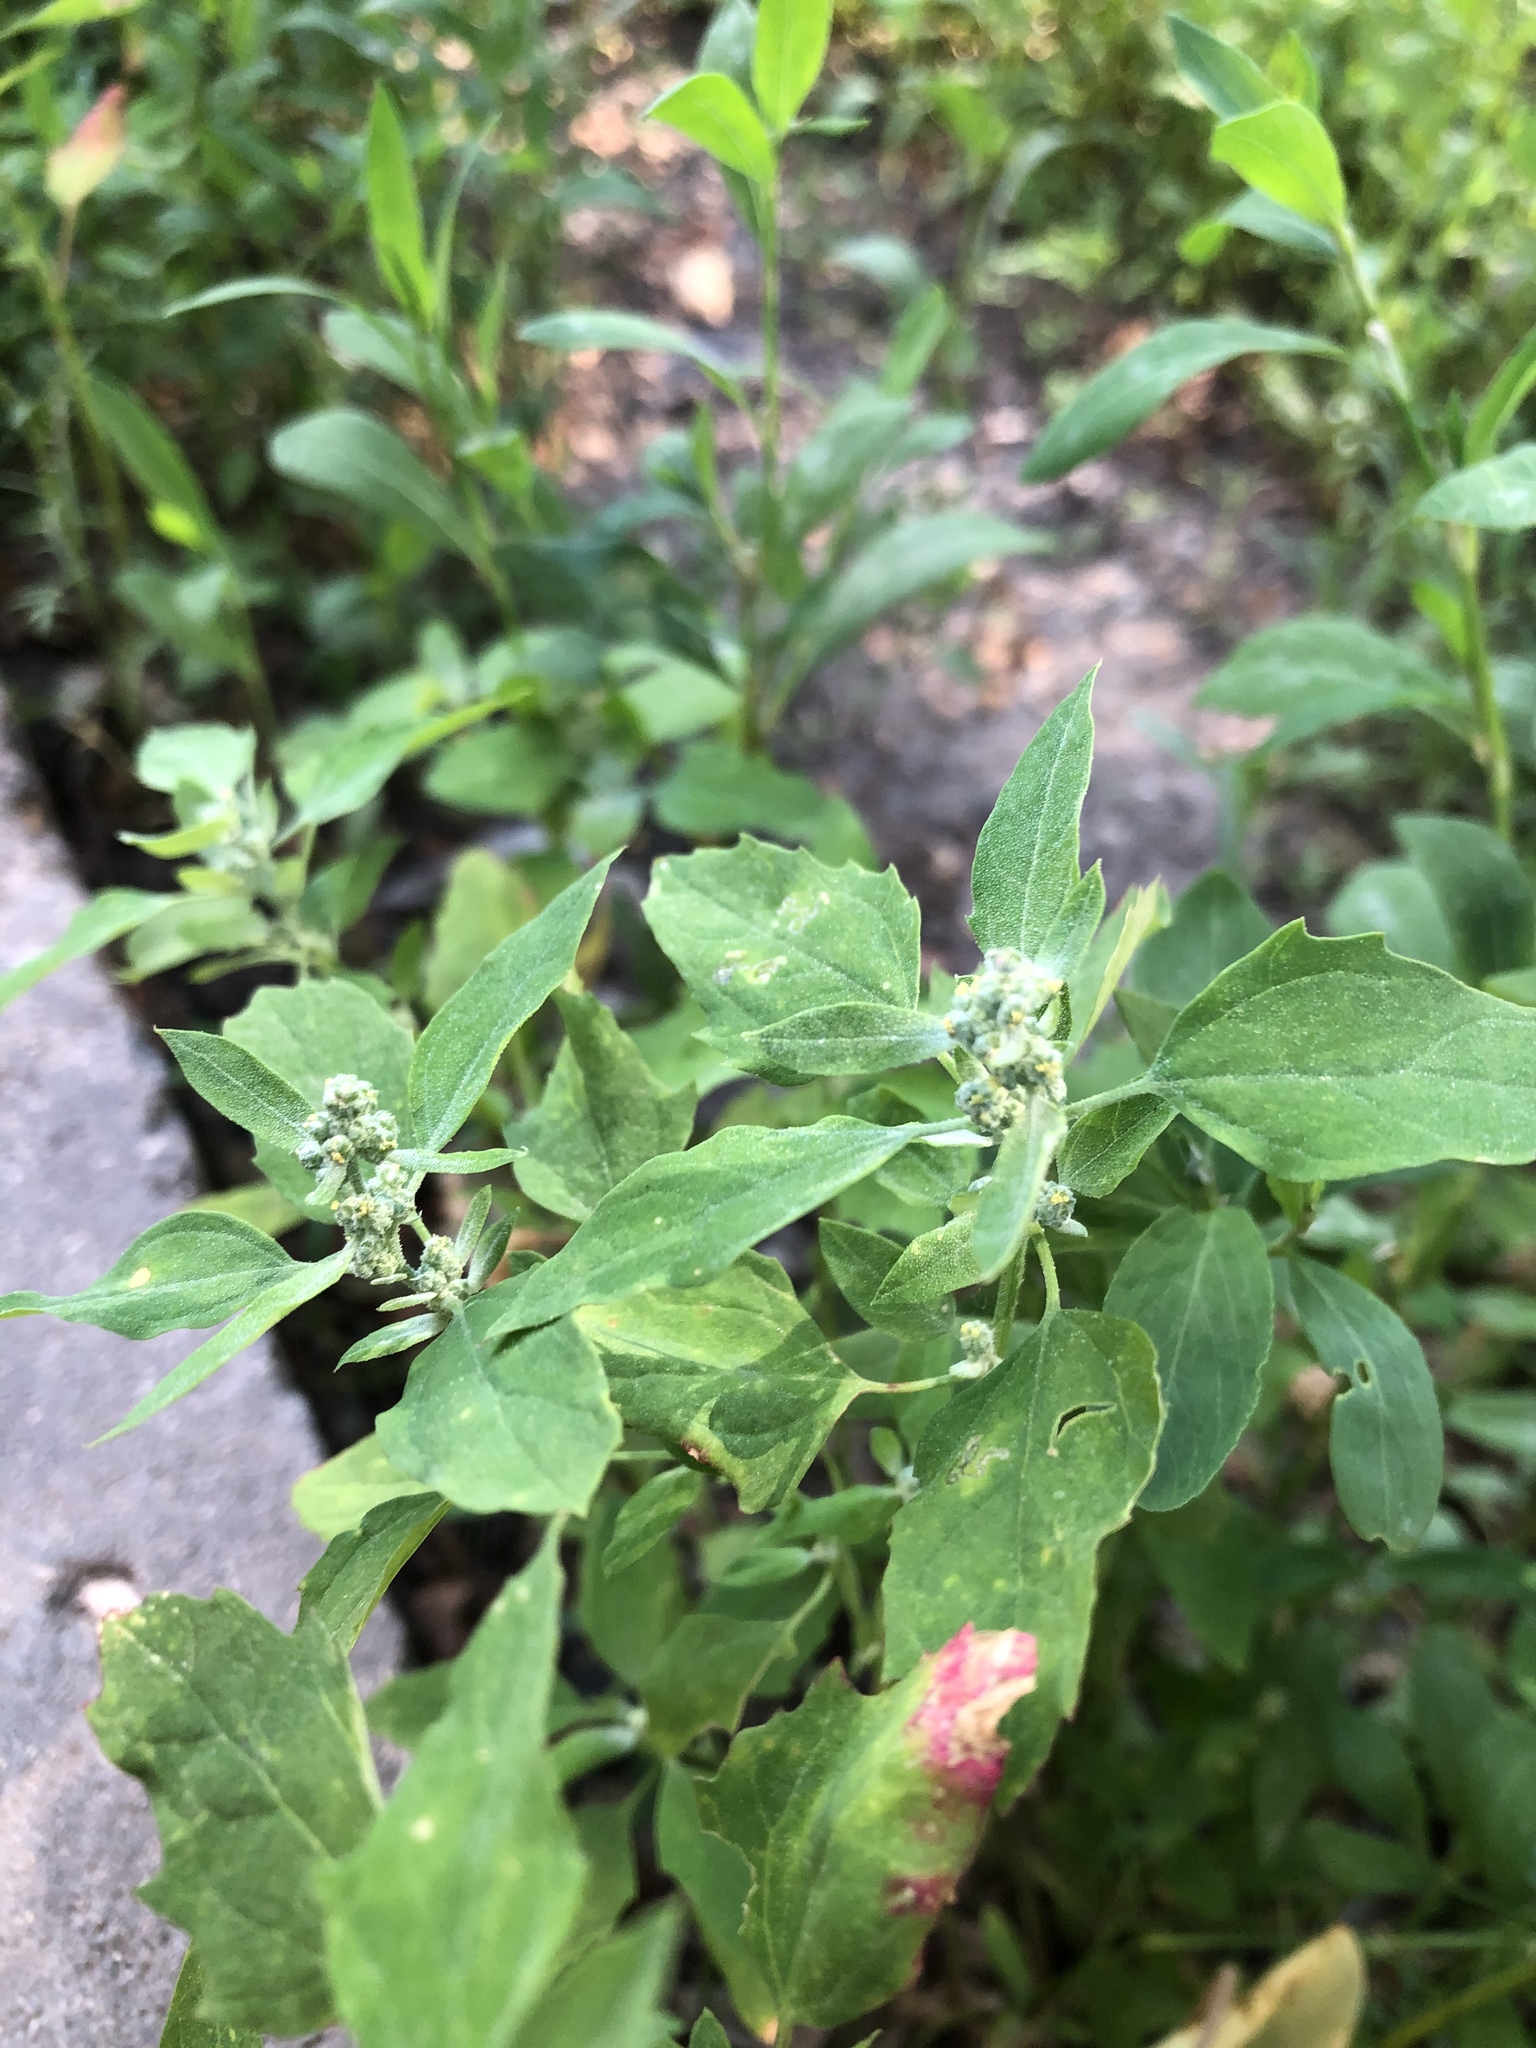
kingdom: Plantae
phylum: Tracheophyta
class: Magnoliopsida
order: Caryophyllales
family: Amaranthaceae
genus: Chenopodium
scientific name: Chenopodium album
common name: Fat-hen
